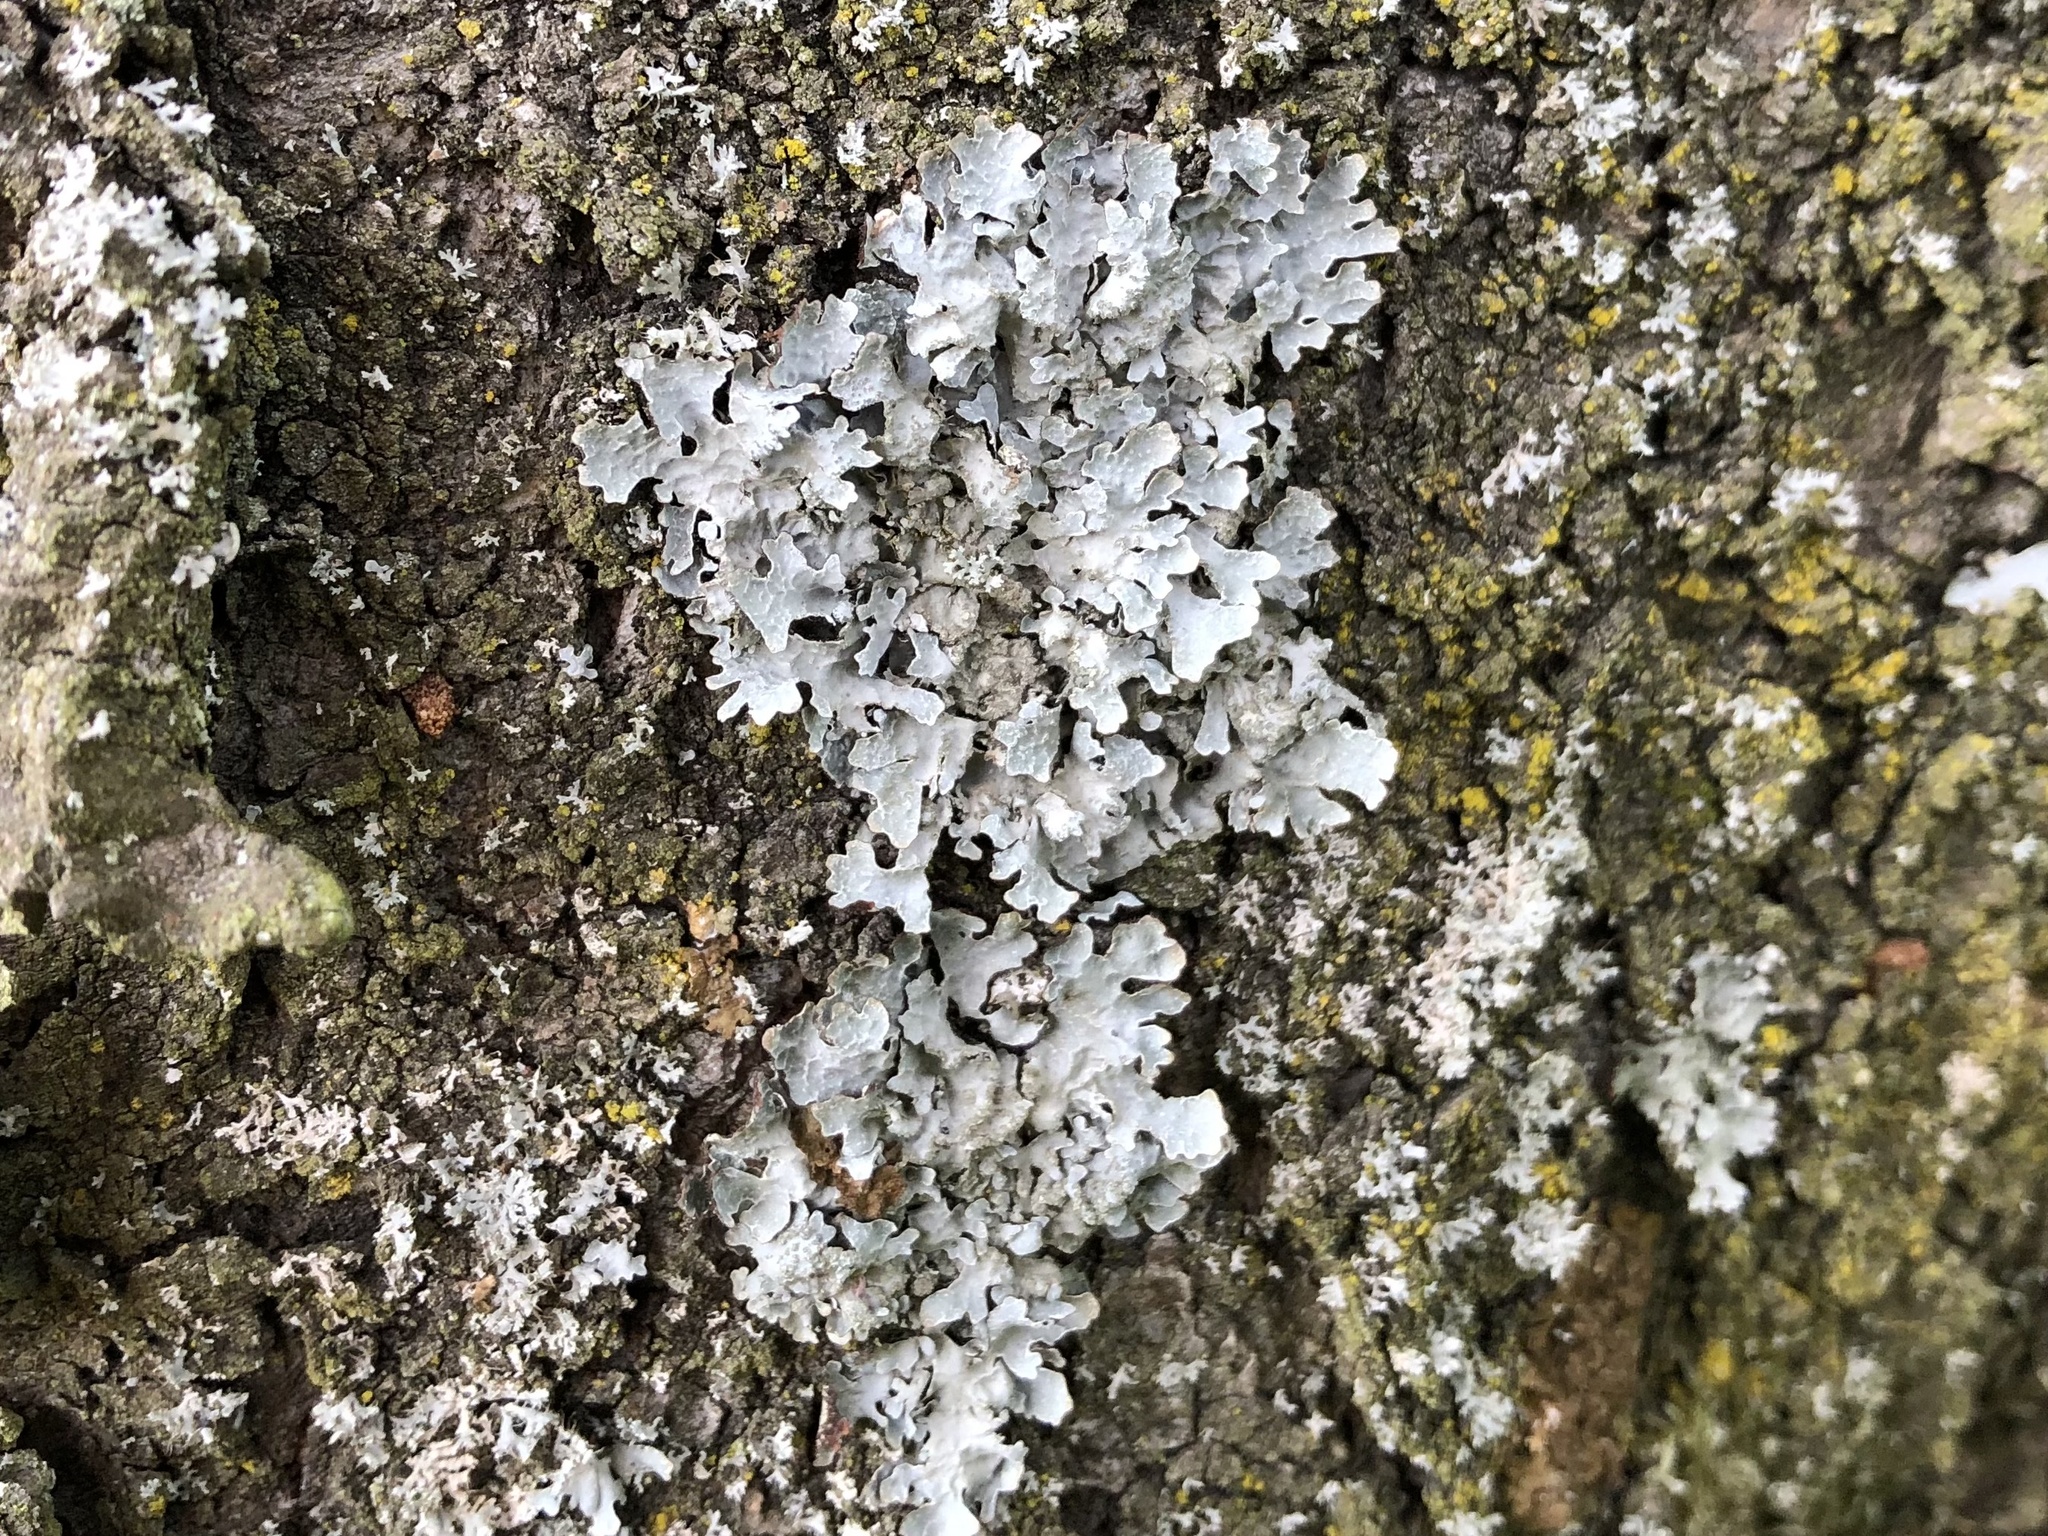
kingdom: Fungi
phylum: Ascomycota
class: Lecanoromycetes
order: Lecanorales
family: Parmeliaceae
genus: Parmelia
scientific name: Parmelia sulcata
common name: Netted shield lichen
